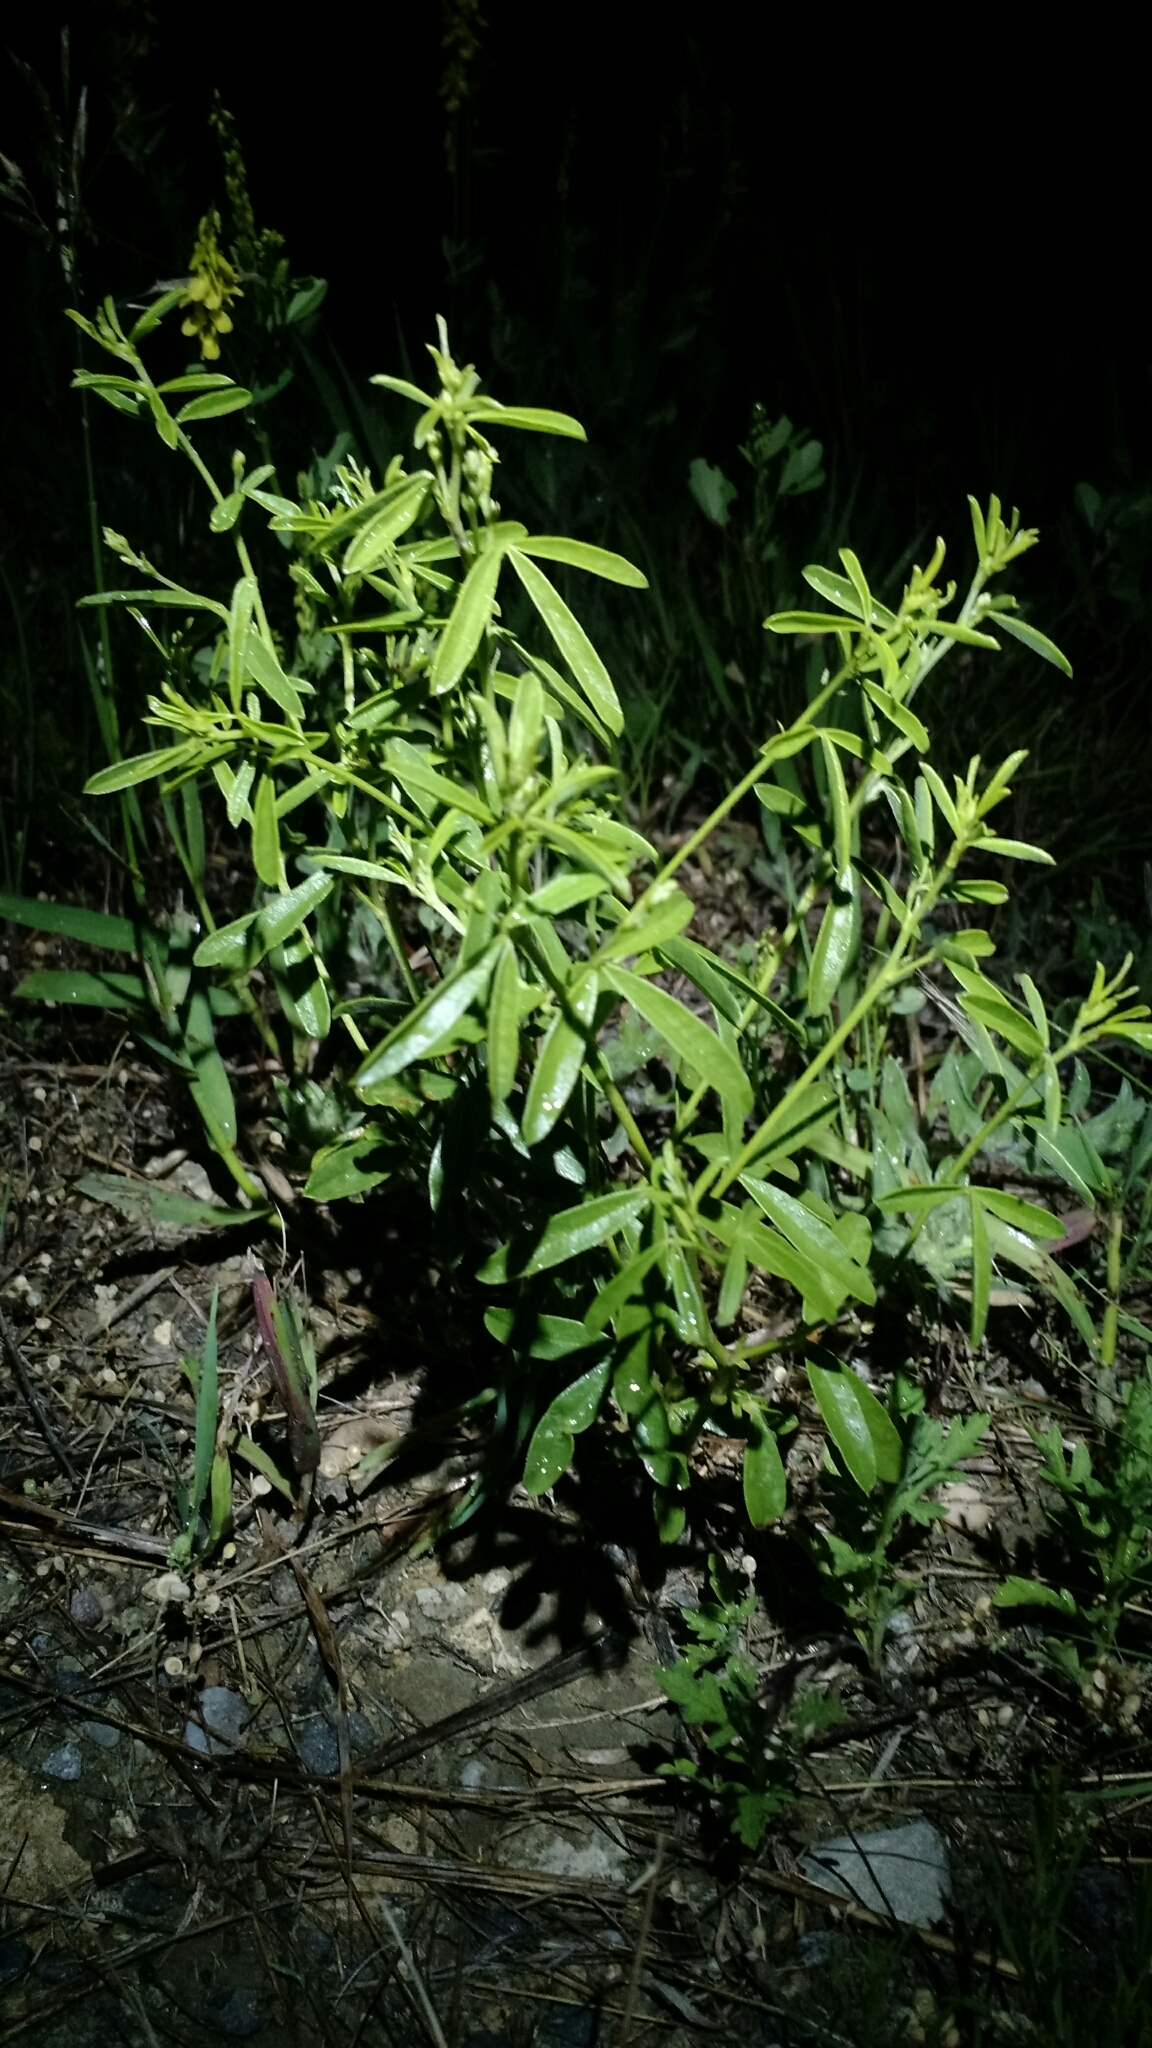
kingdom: Plantae
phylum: Tracheophyta
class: Magnoliopsida
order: Fabales
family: Fabaceae
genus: Pediomelum
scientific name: Pediomelum tenuiflorum
